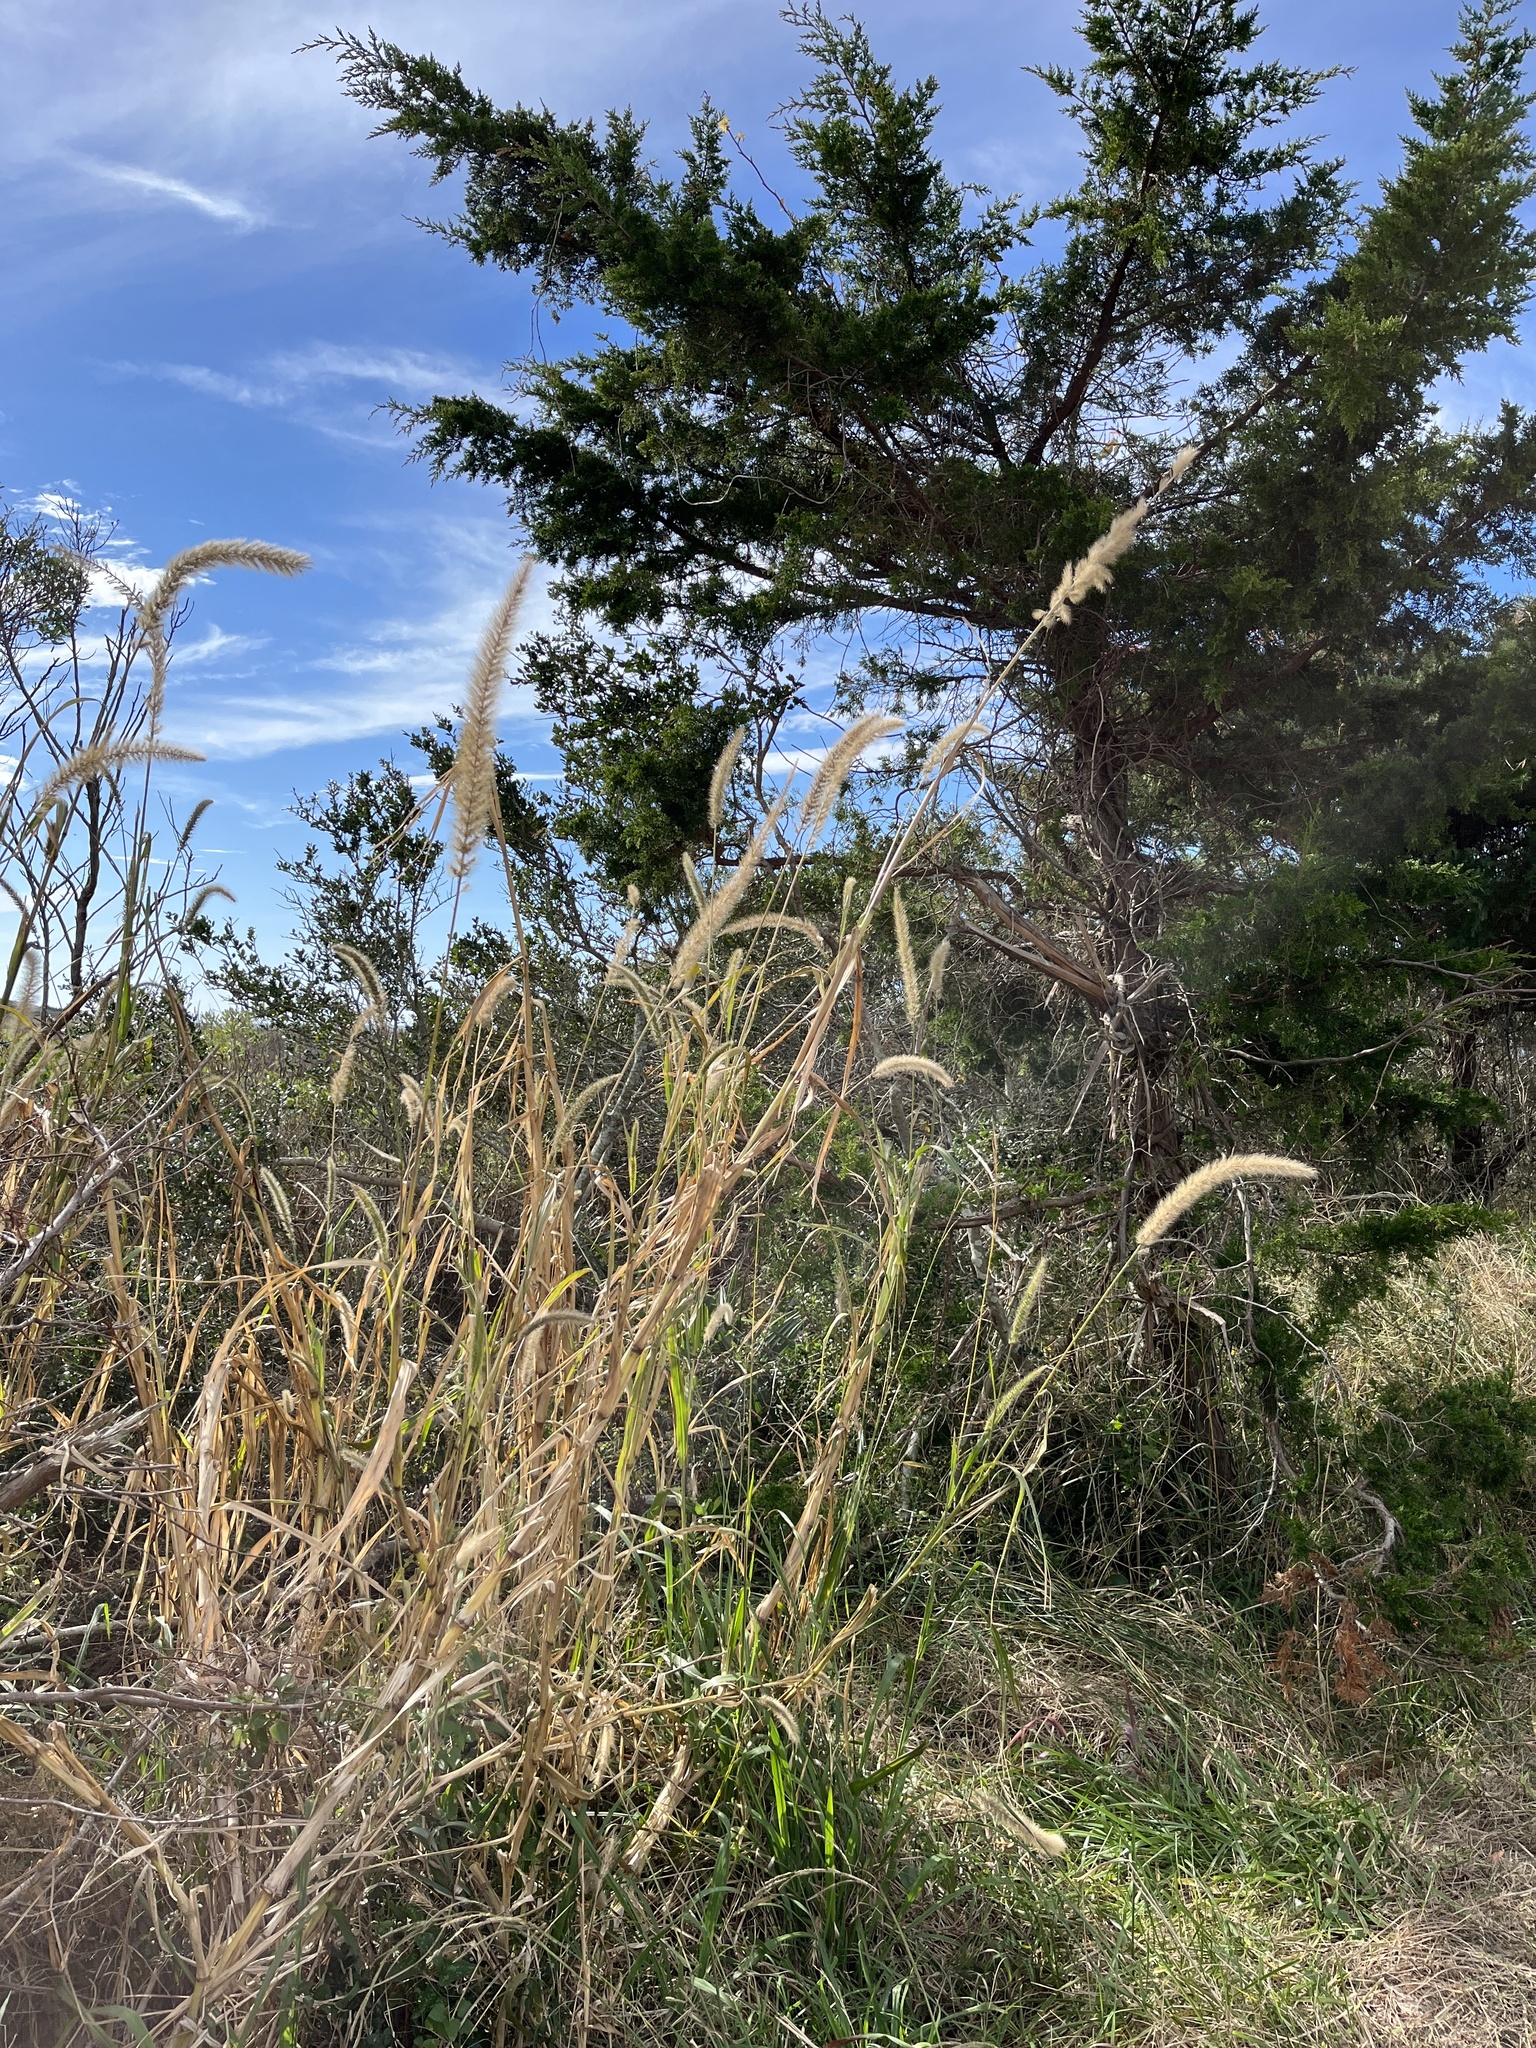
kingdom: Plantae
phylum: Tracheophyta
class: Liliopsida
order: Poales
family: Poaceae
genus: Setaria
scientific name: Setaria magna
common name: Giant bristle grass
